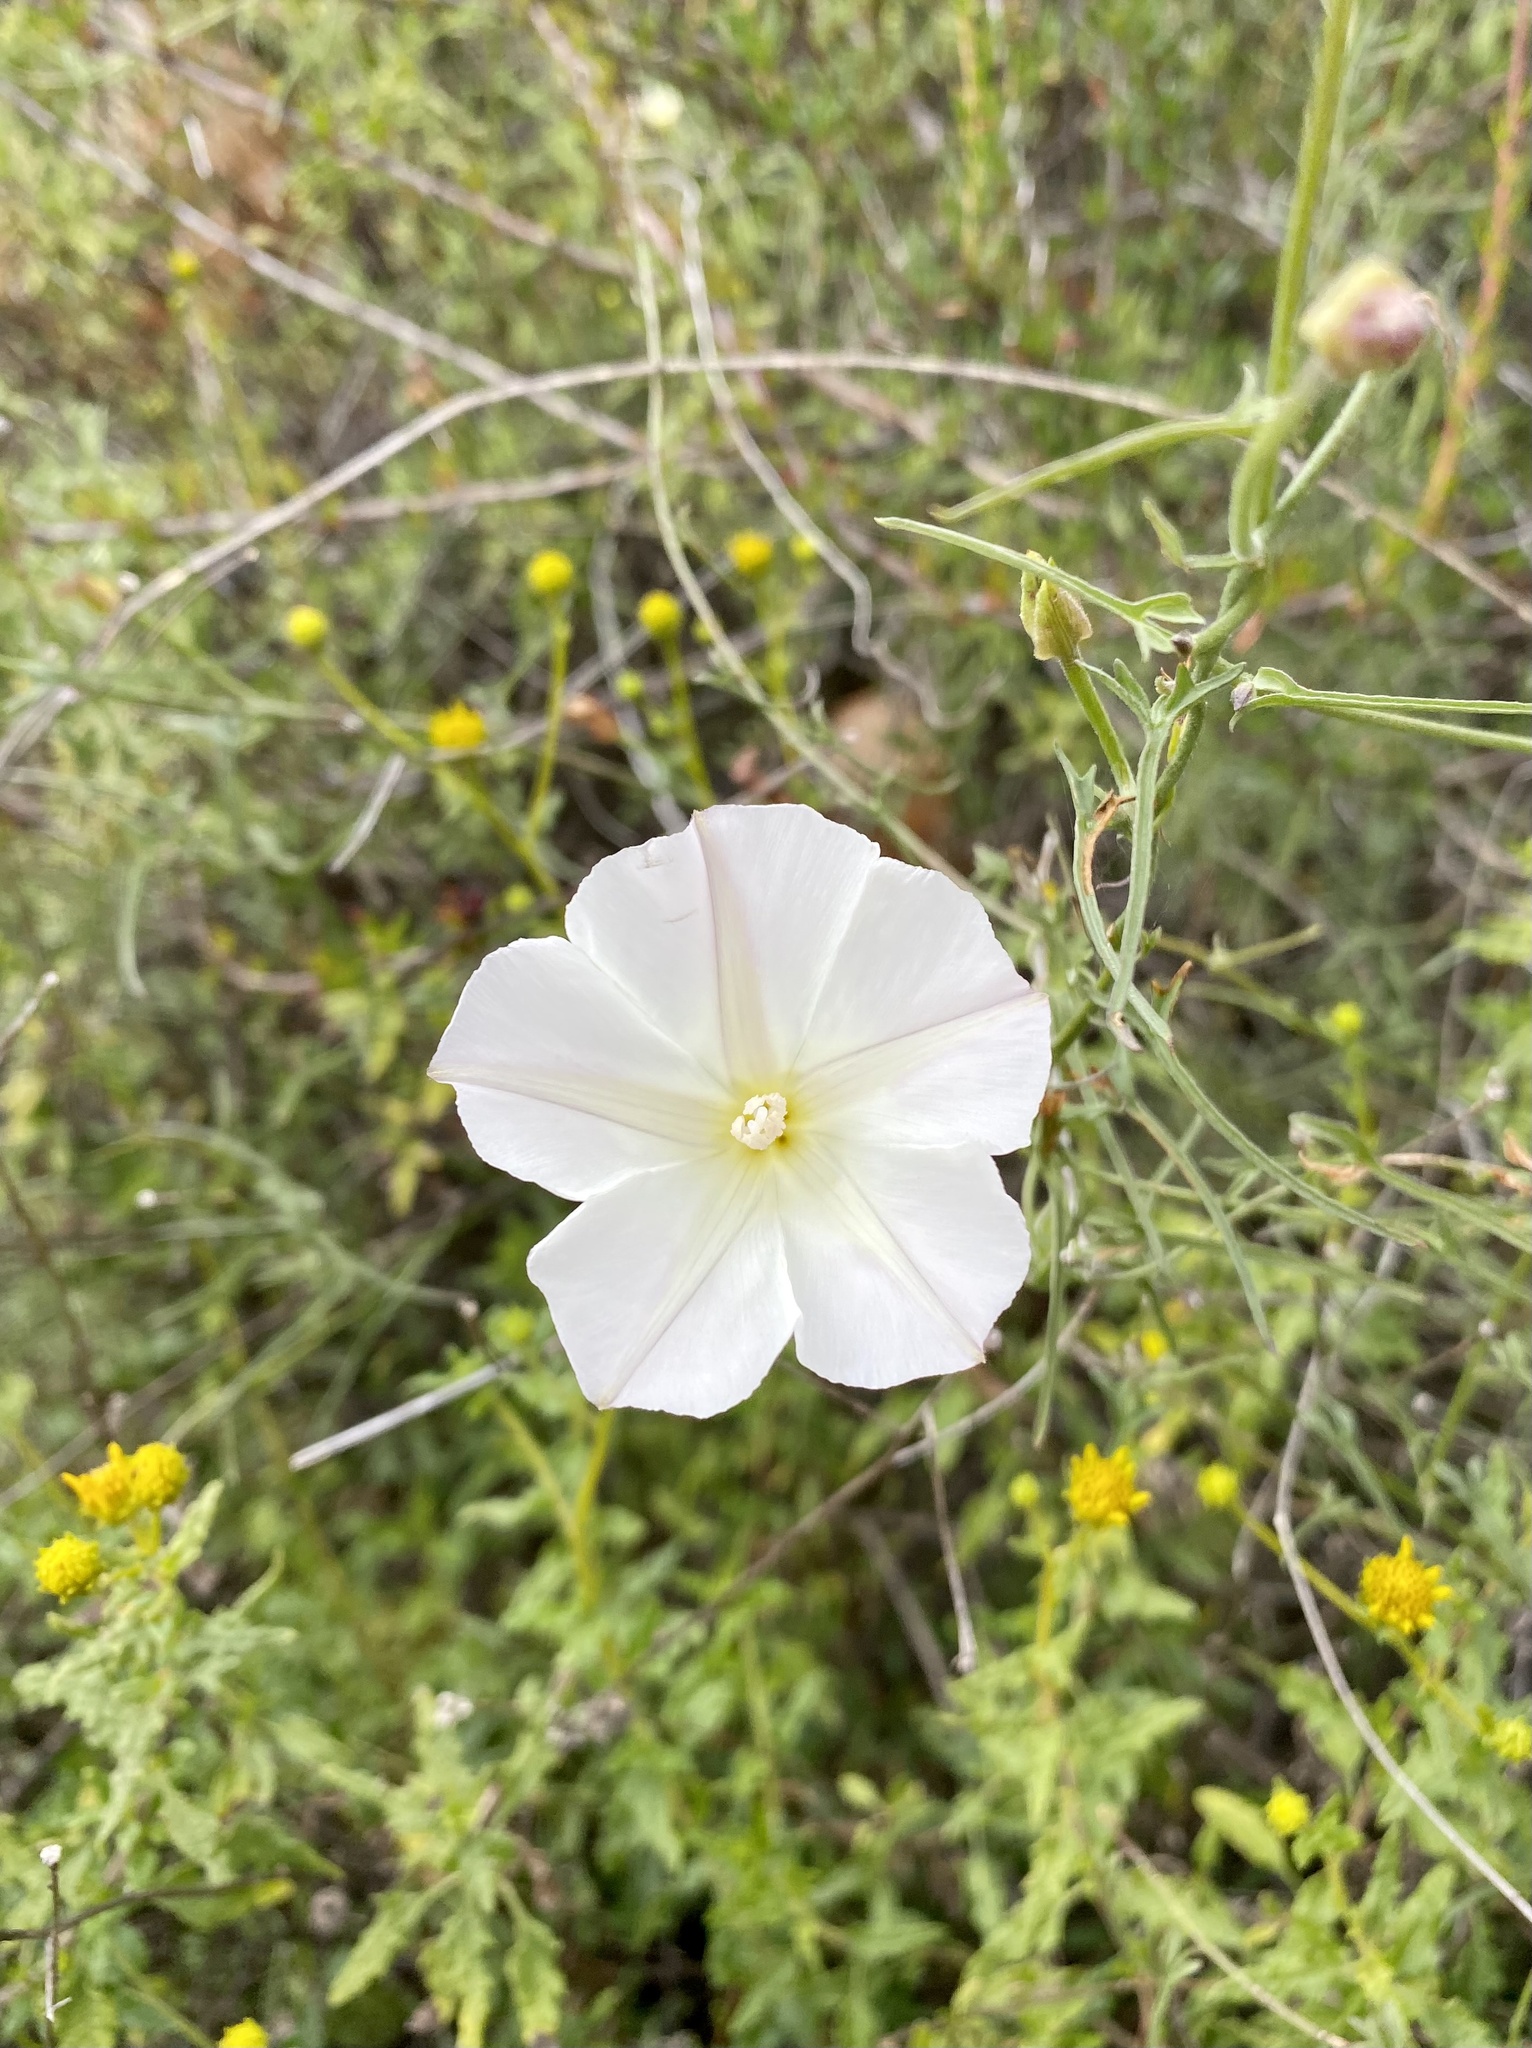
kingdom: Plantae
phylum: Tracheophyta
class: Magnoliopsida
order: Solanales
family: Convolvulaceae
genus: Calystegia
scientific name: Calystegia macrostegia
